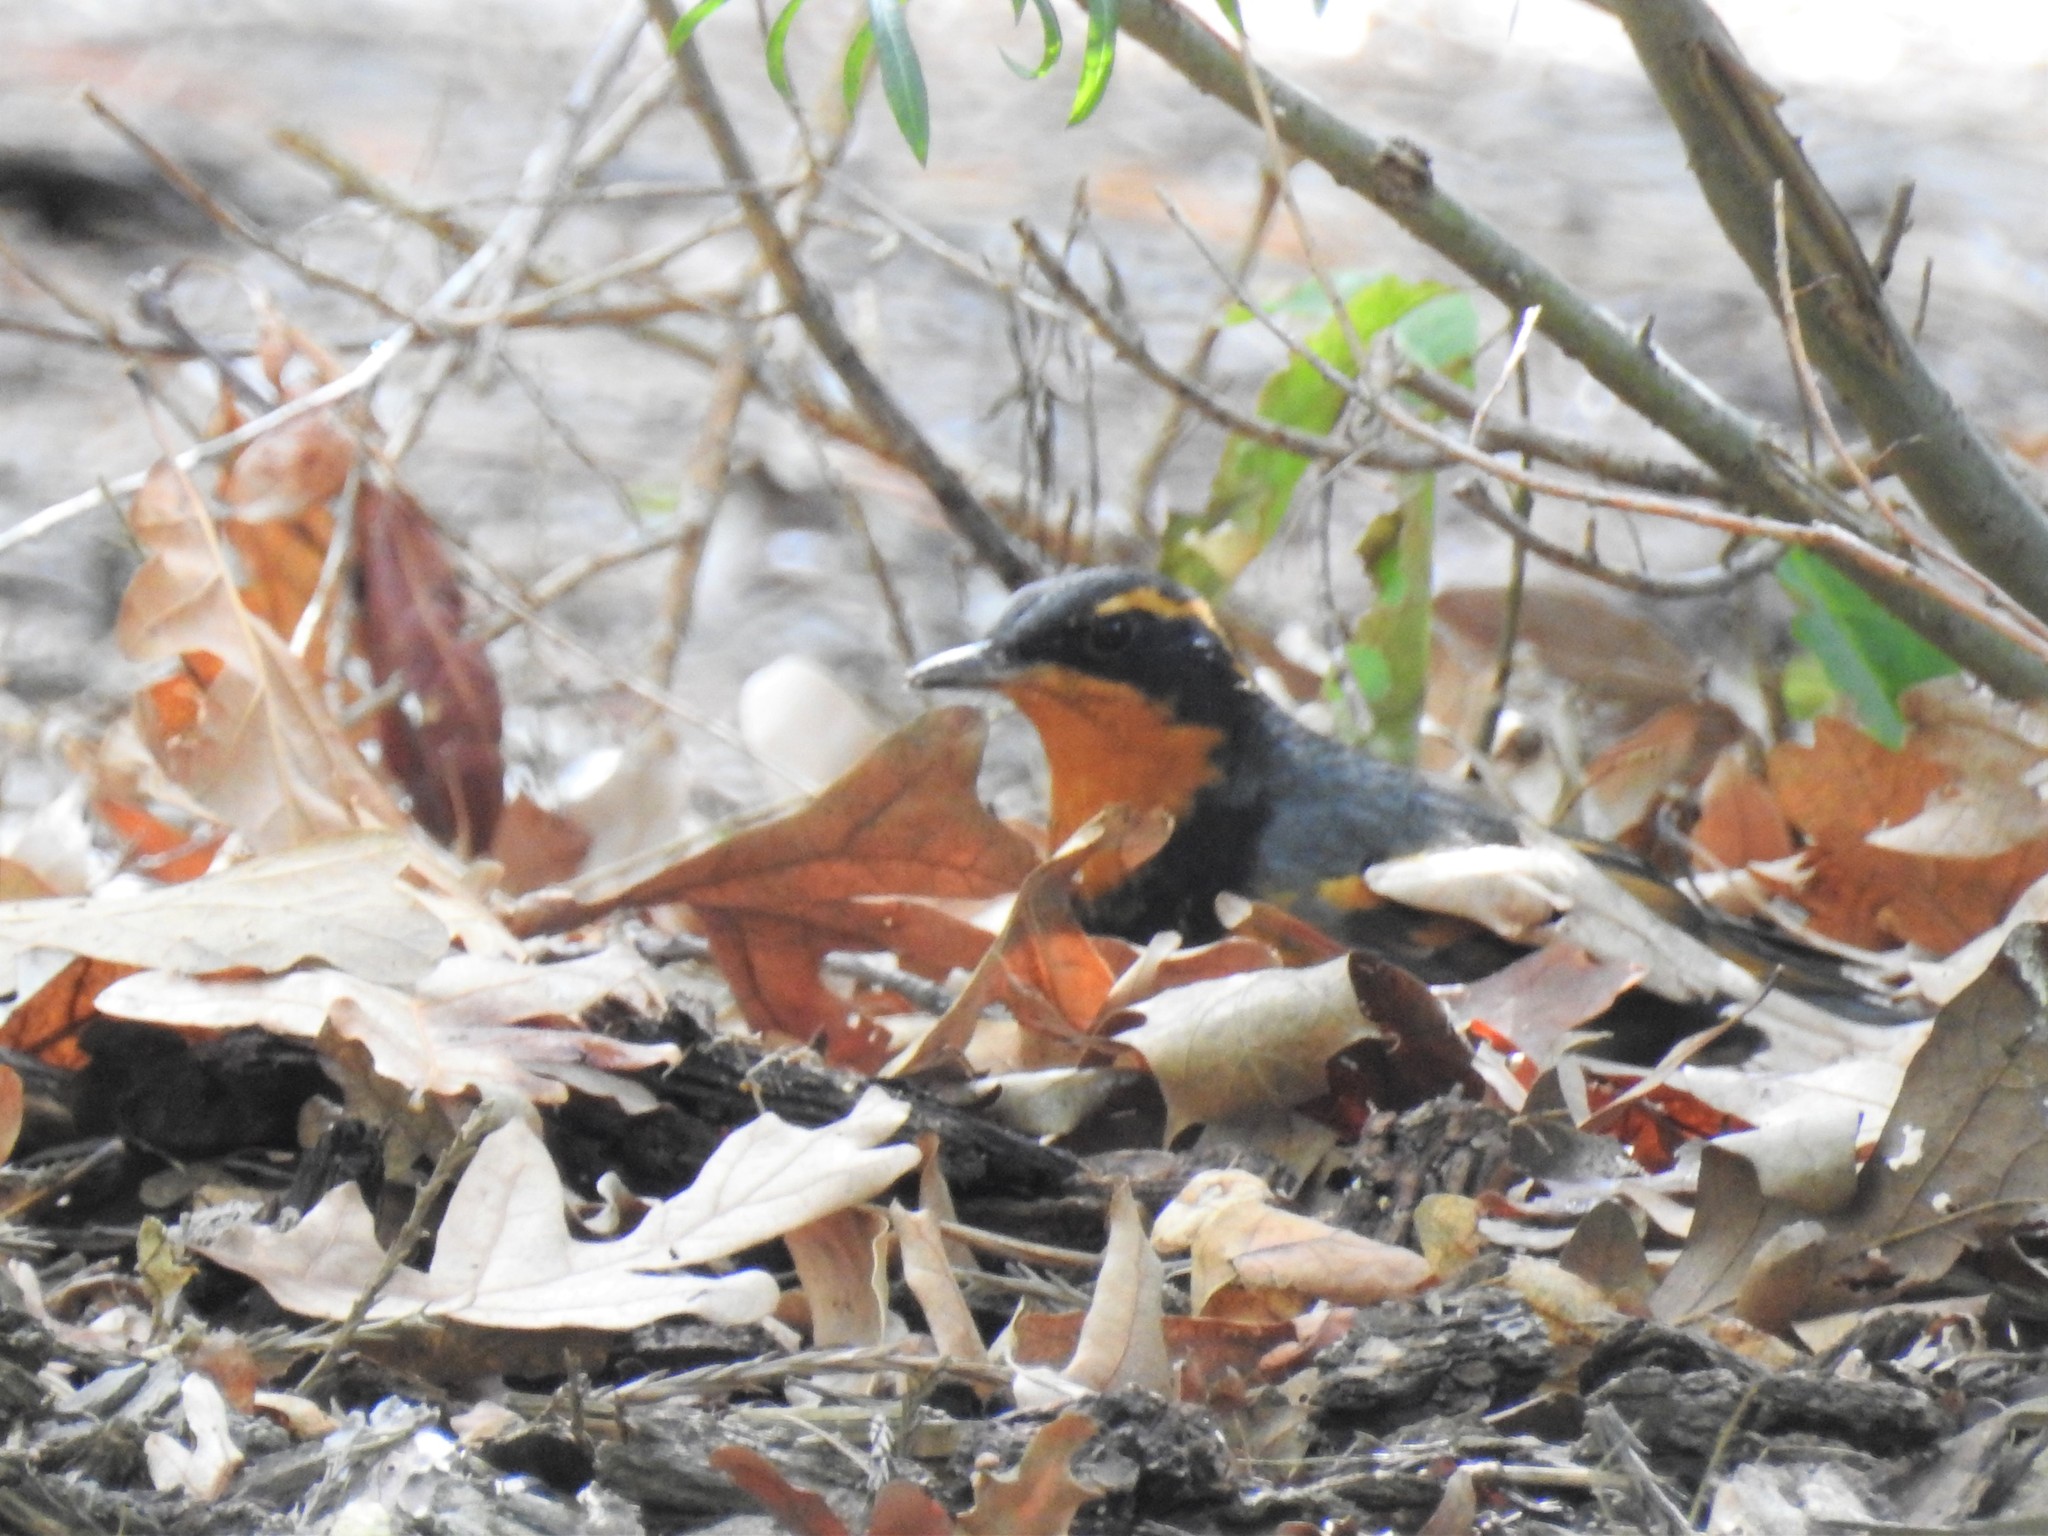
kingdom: Animalia
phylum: Chordata
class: Aves
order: Passeriformes
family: Turdidae
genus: Ixoreus
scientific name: Ixoreus naevius
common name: Varied thrush
